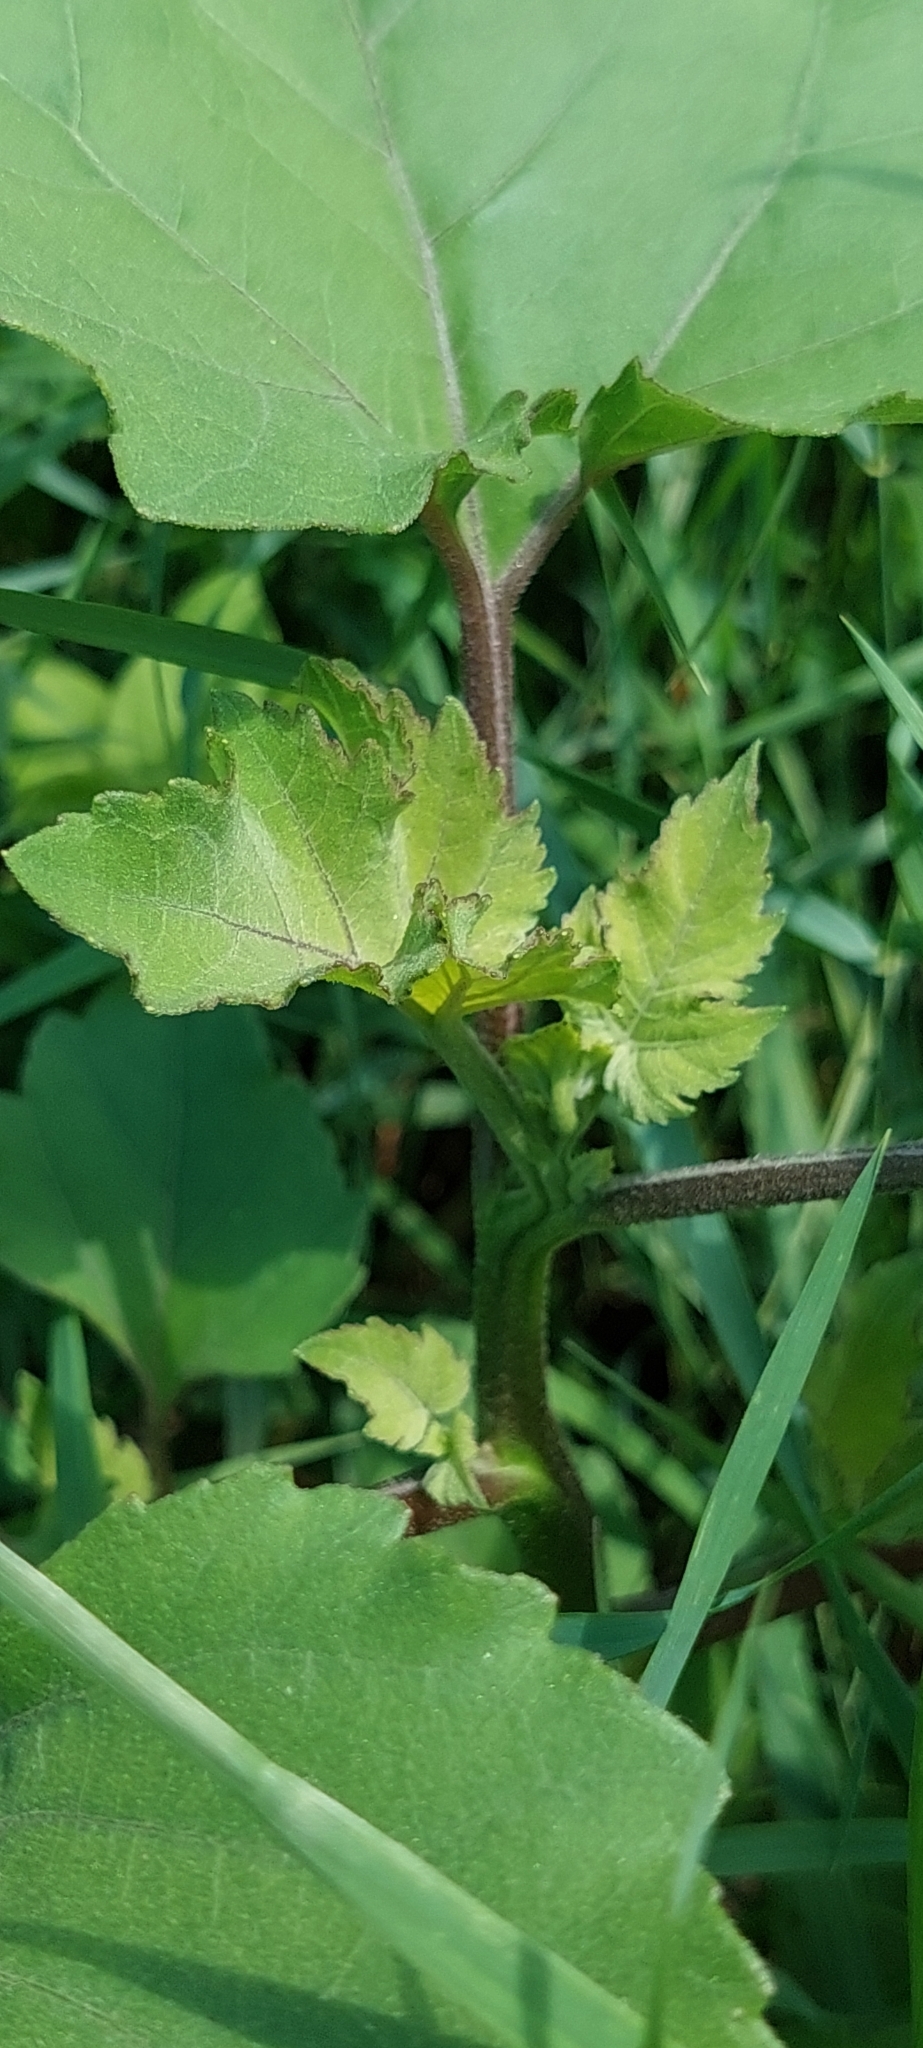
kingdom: Plantae
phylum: Tracheophyta
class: Magnoliopsida
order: Asterales
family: Asteraceae
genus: Xanthium
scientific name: Xanthium orientale
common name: Californian burr
